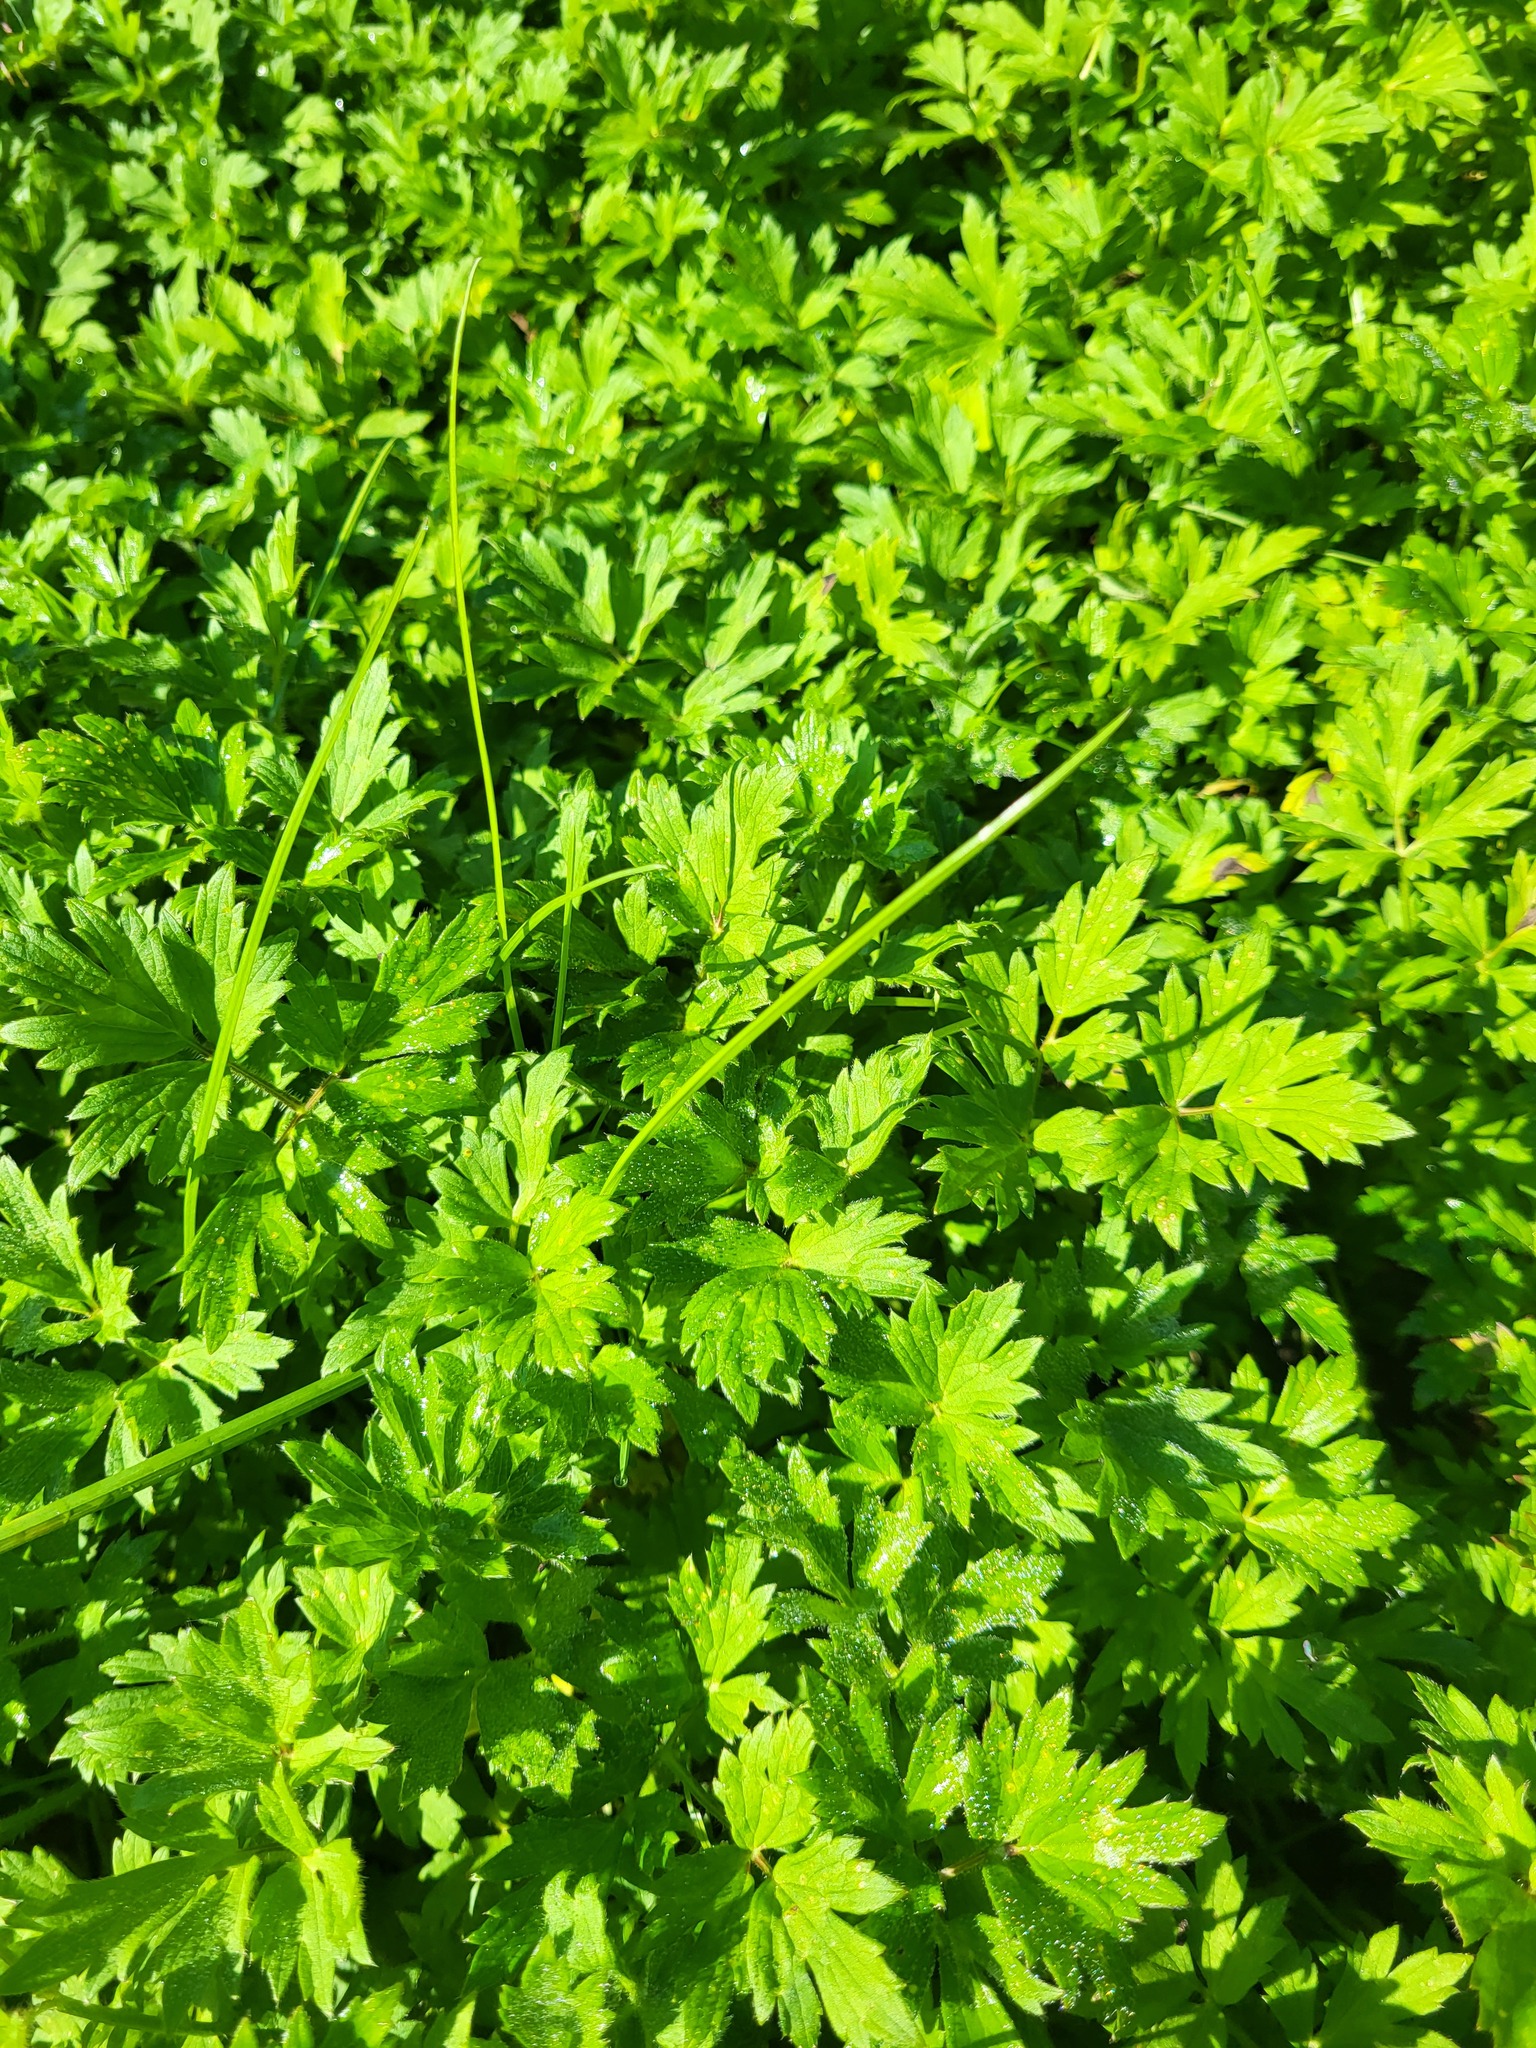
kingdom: Plantae
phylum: Tracheophyta
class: Magnoliopsida
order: Ranunculales
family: Ranunculaceae
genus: Ranunculus
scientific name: Ranunculus repens
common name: Creeping buttercup
